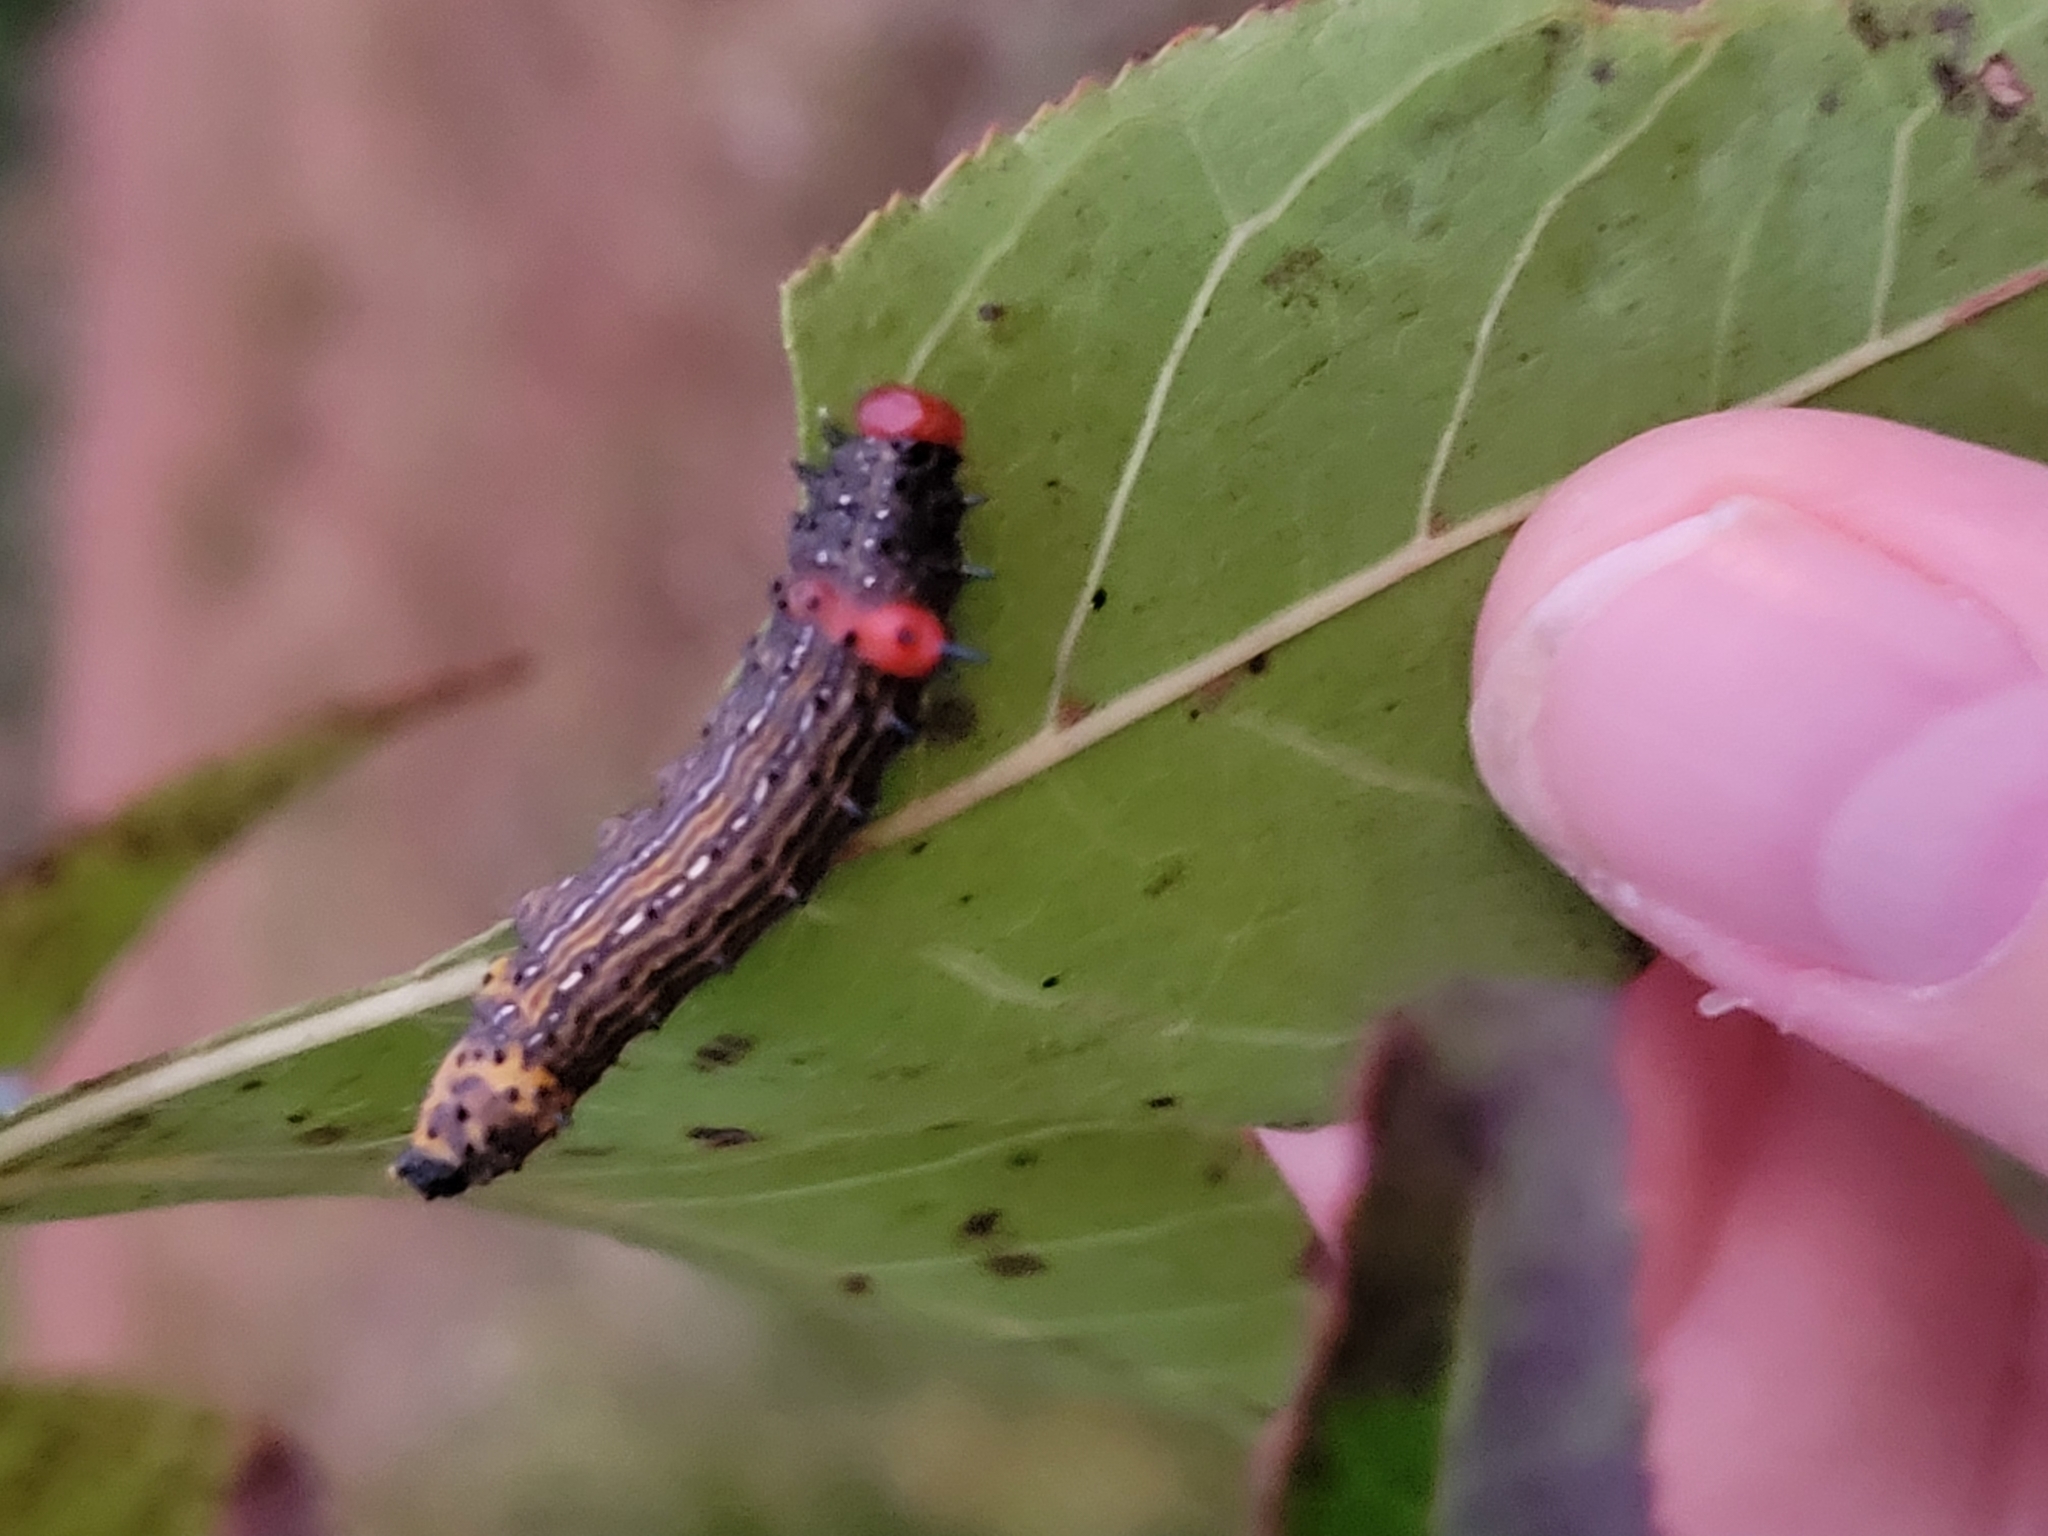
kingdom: Animalia
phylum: Arthropoda
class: Insecta
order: Lepidoptera
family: Notodontidae
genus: Schizura
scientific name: Schizura
